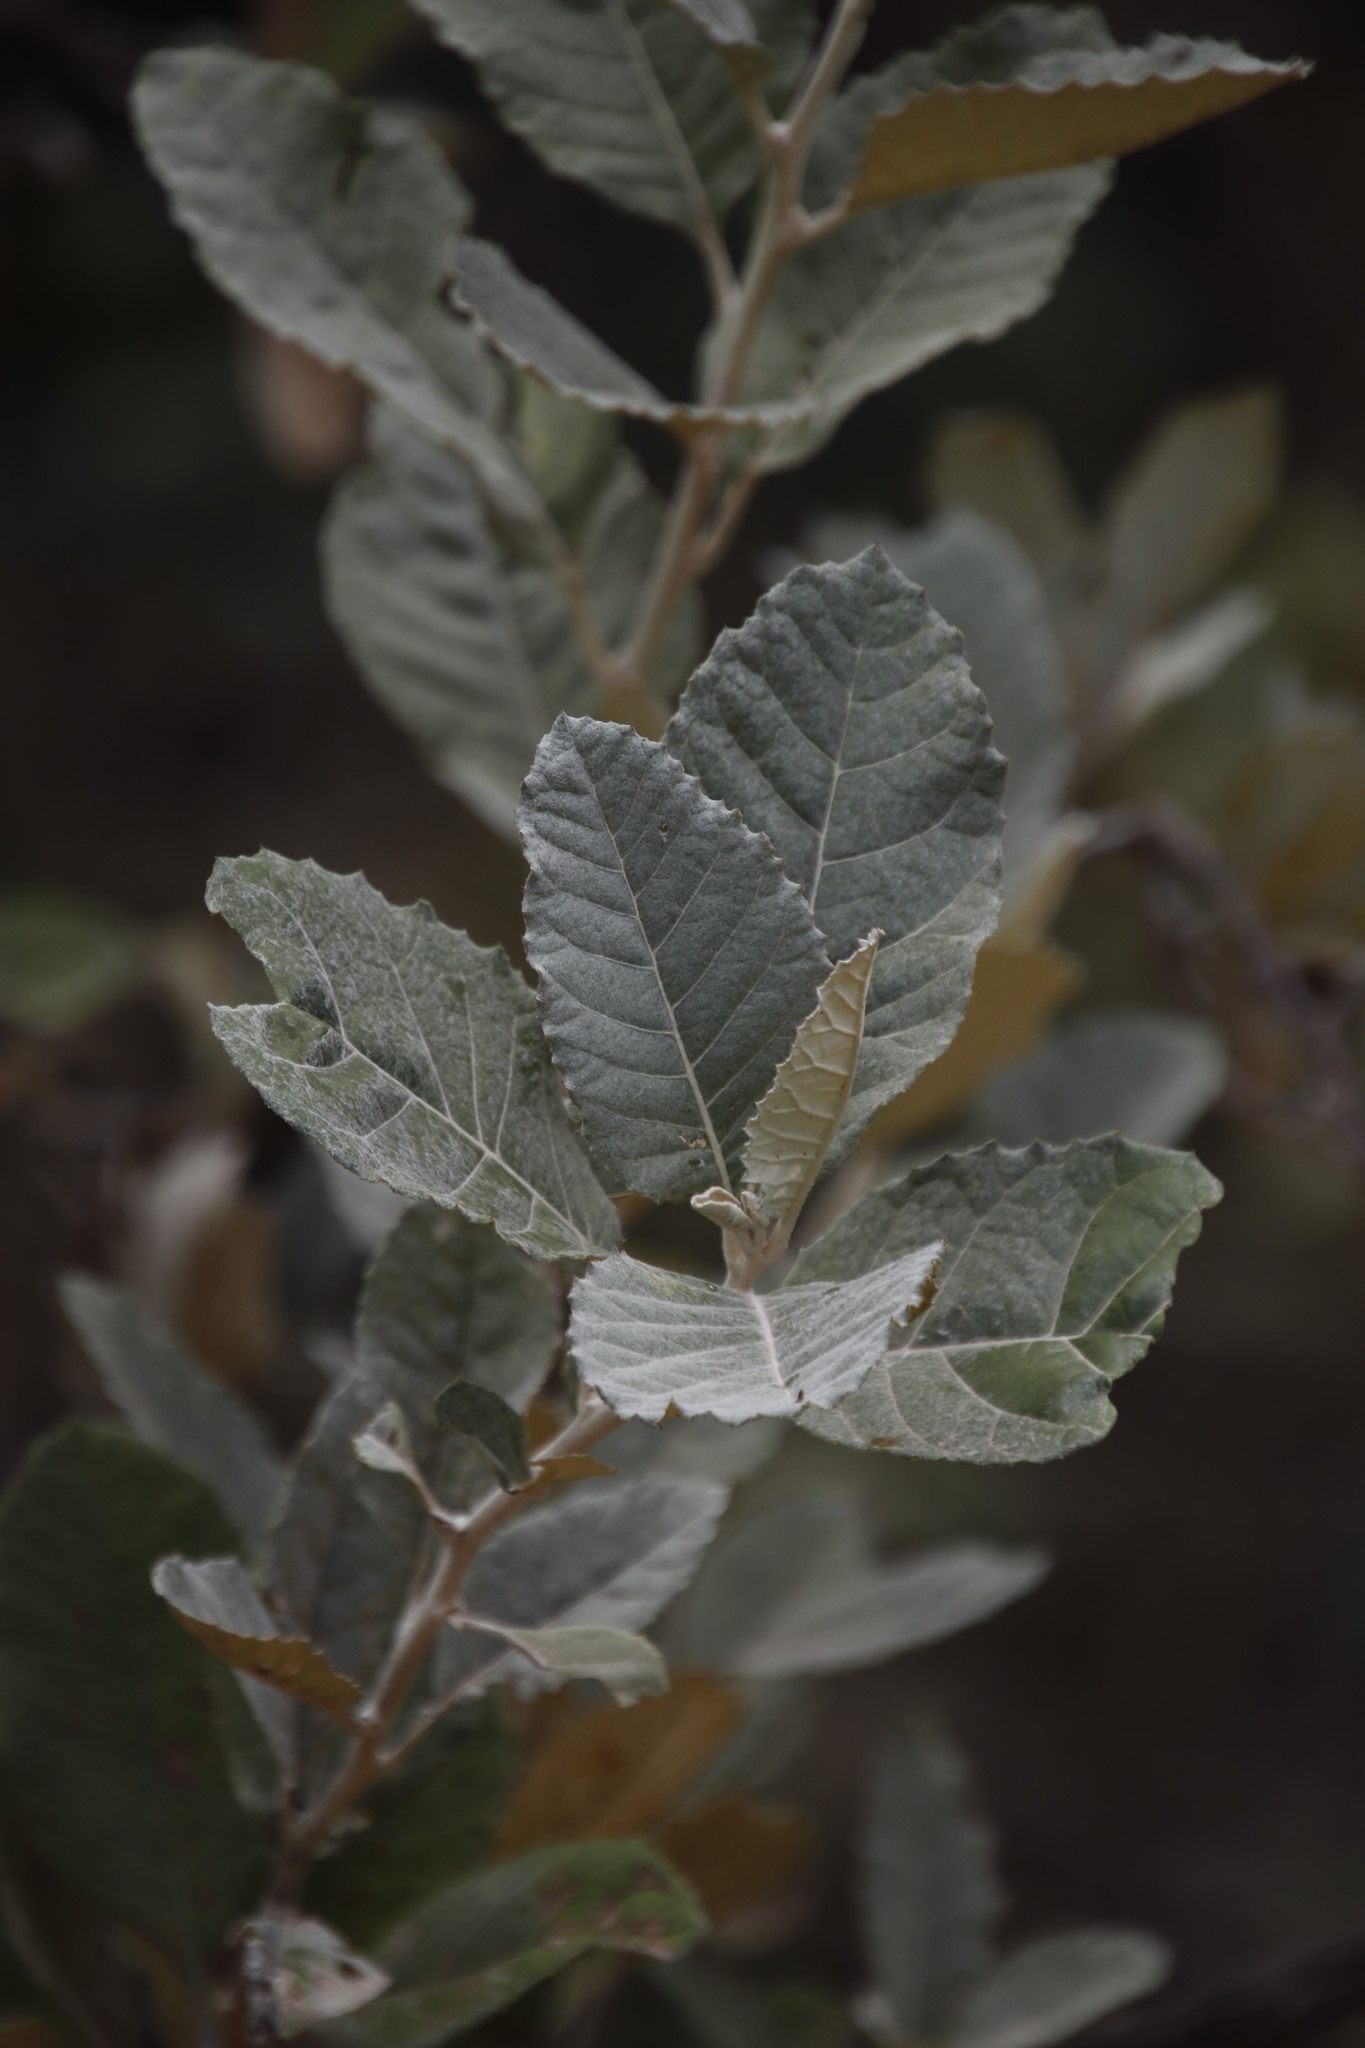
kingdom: Plantae
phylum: Tracheophyta
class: Magnoliopsida
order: Asterales
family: Asteraceae
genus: Brachylaena
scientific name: Brachylaena discolor
